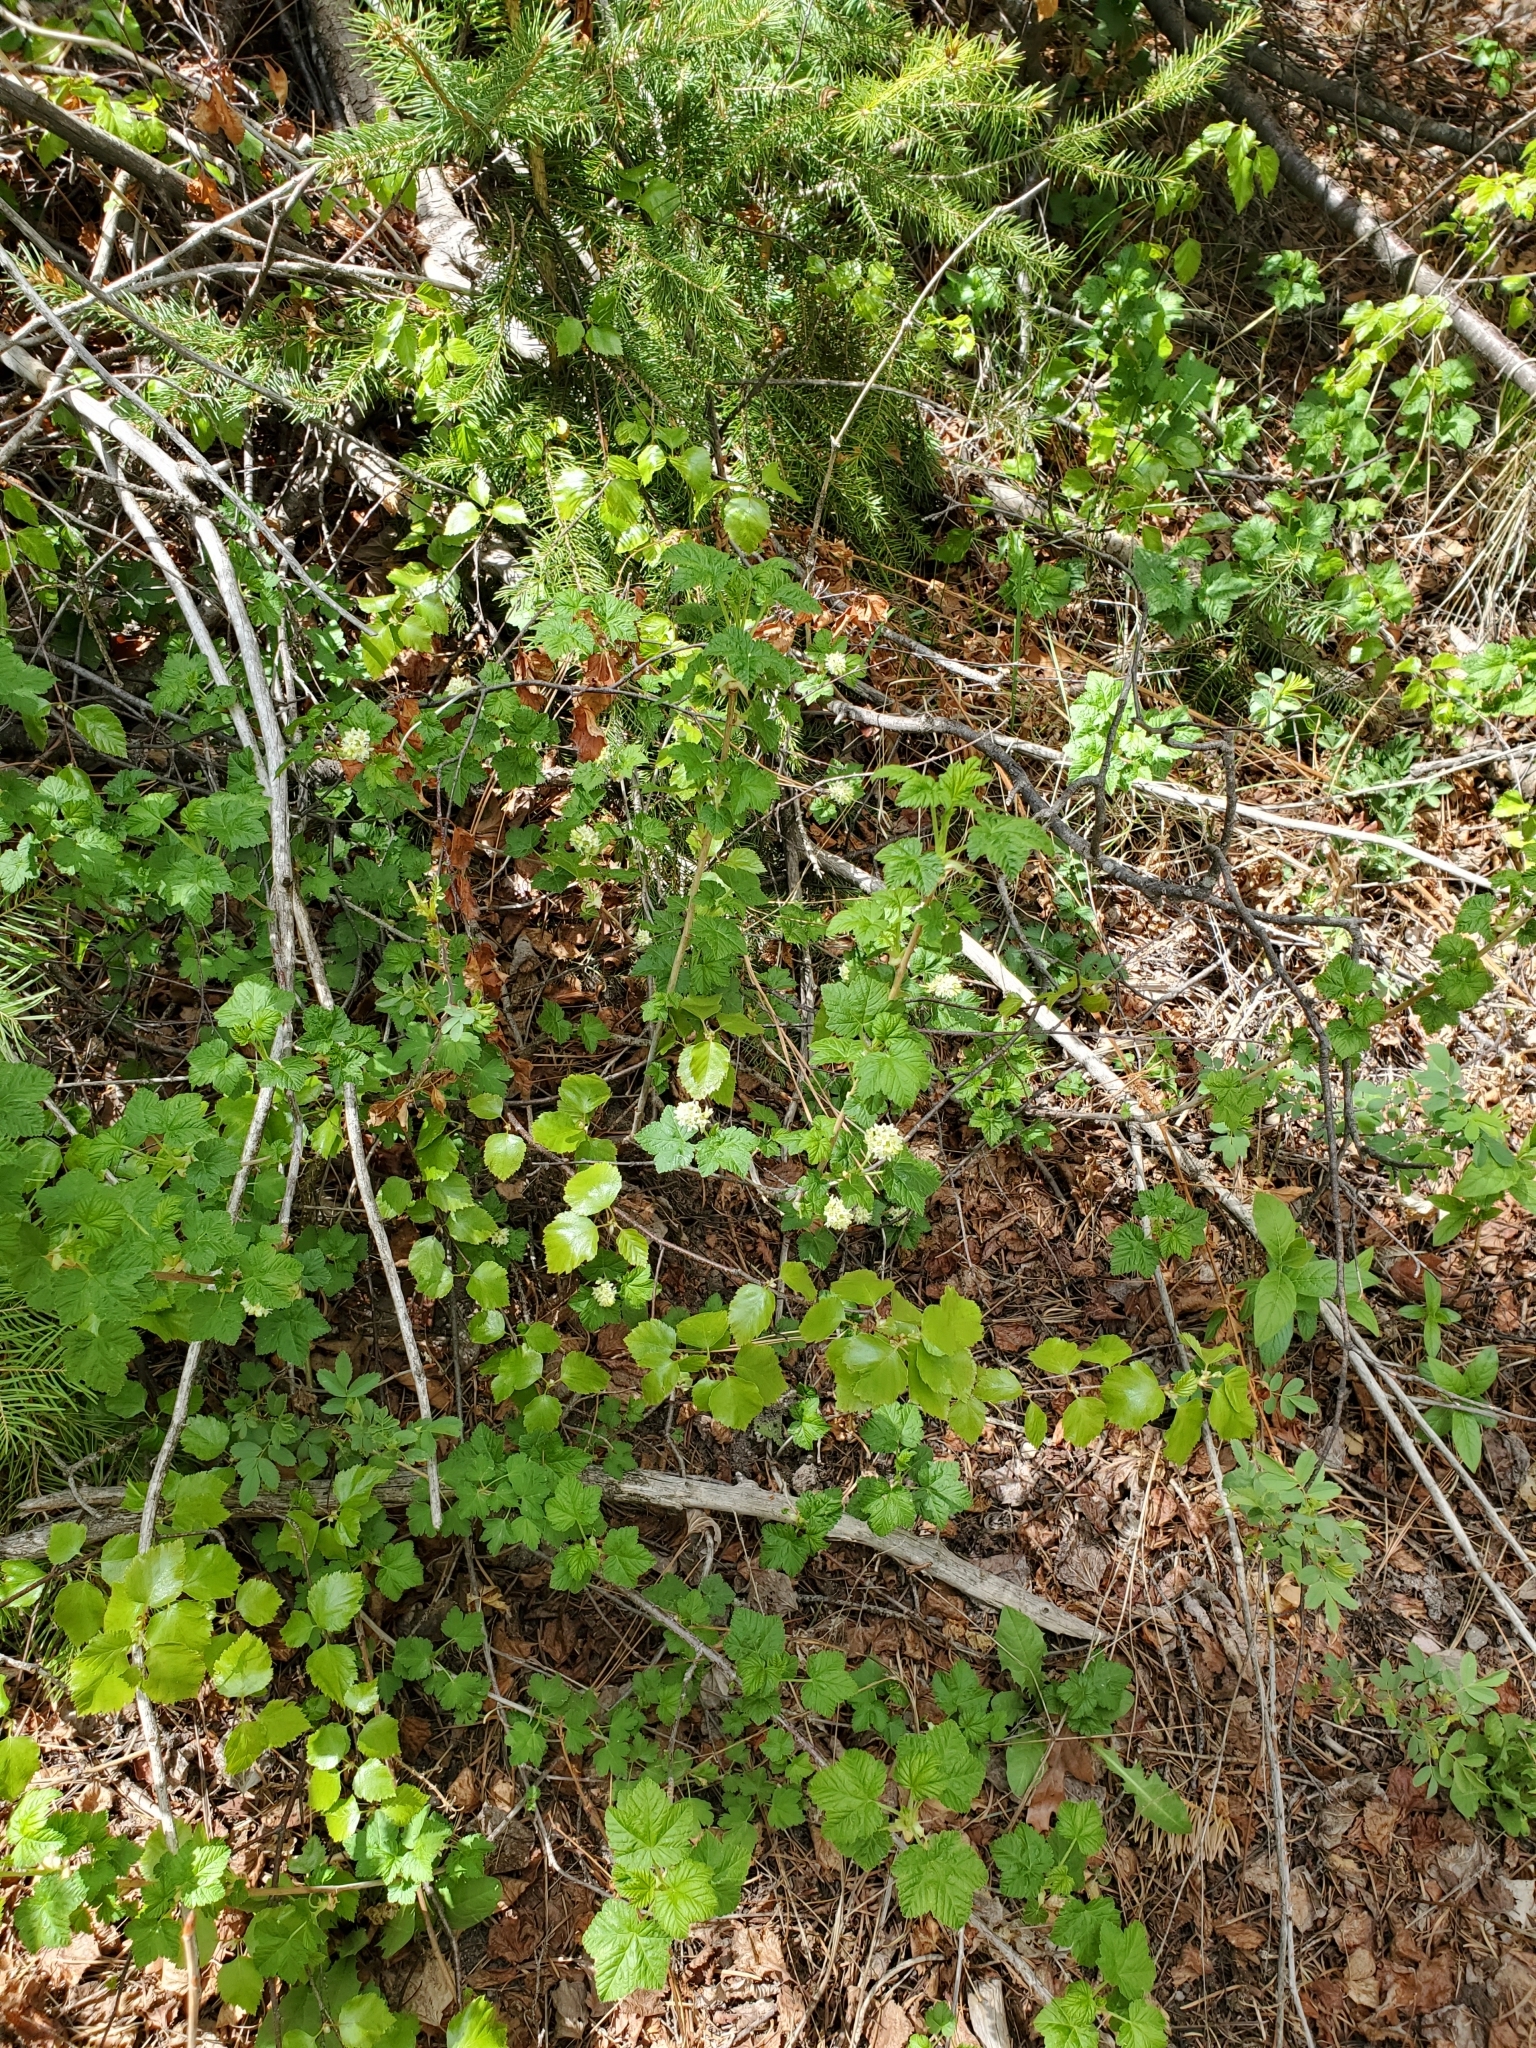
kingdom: Plantae
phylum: Tracheophyta
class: Magnoliopsida
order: Saxifragales
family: Grossulariaceae
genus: Ribes
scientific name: Ribes wolfii
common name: Rothrock currant
